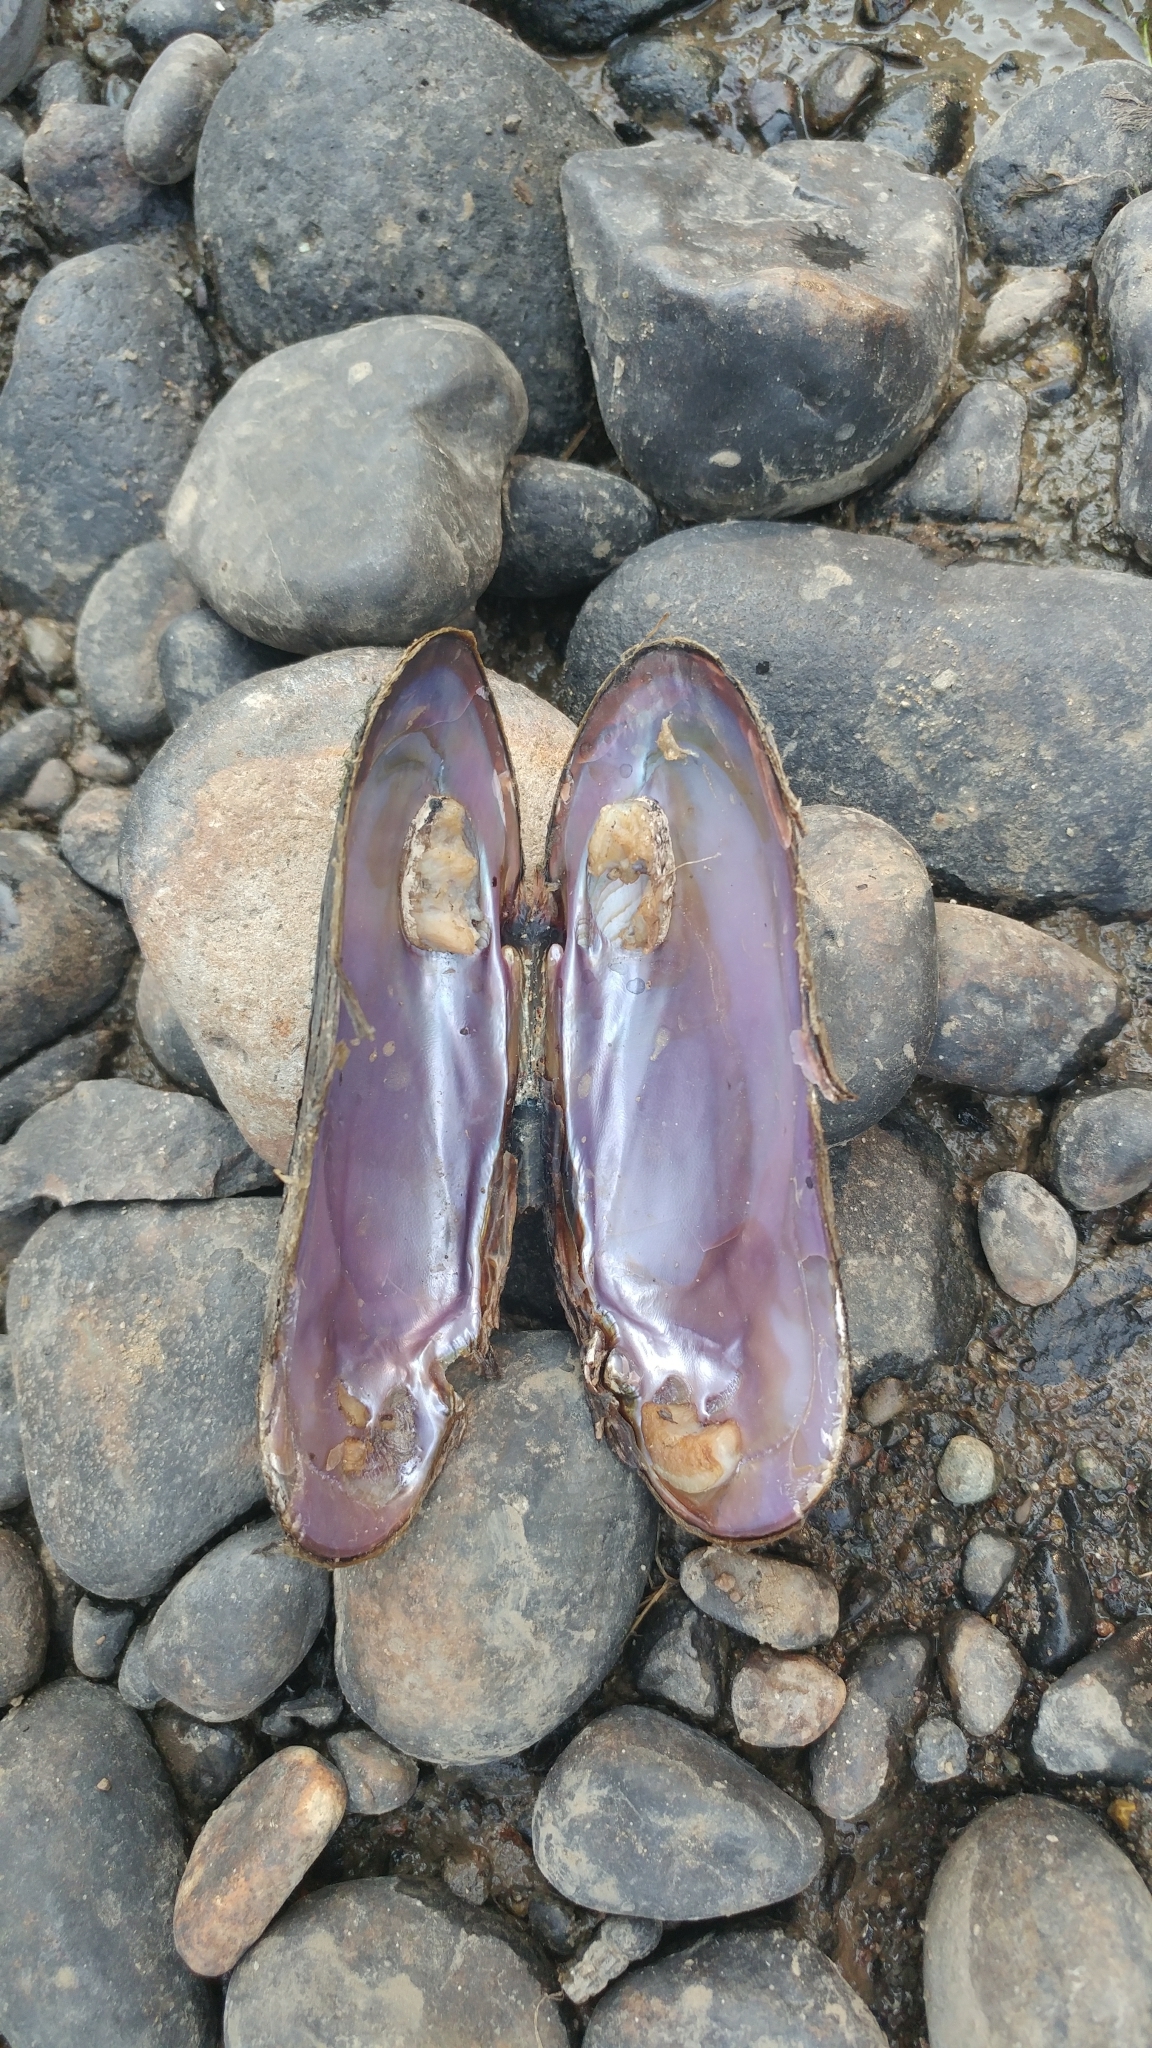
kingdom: Animalia
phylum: Mollusca
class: Bivalvia
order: Unionida
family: Margaritiferidae
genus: Margaritifera
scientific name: Margaritifera falcata
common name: Western pearlshell
